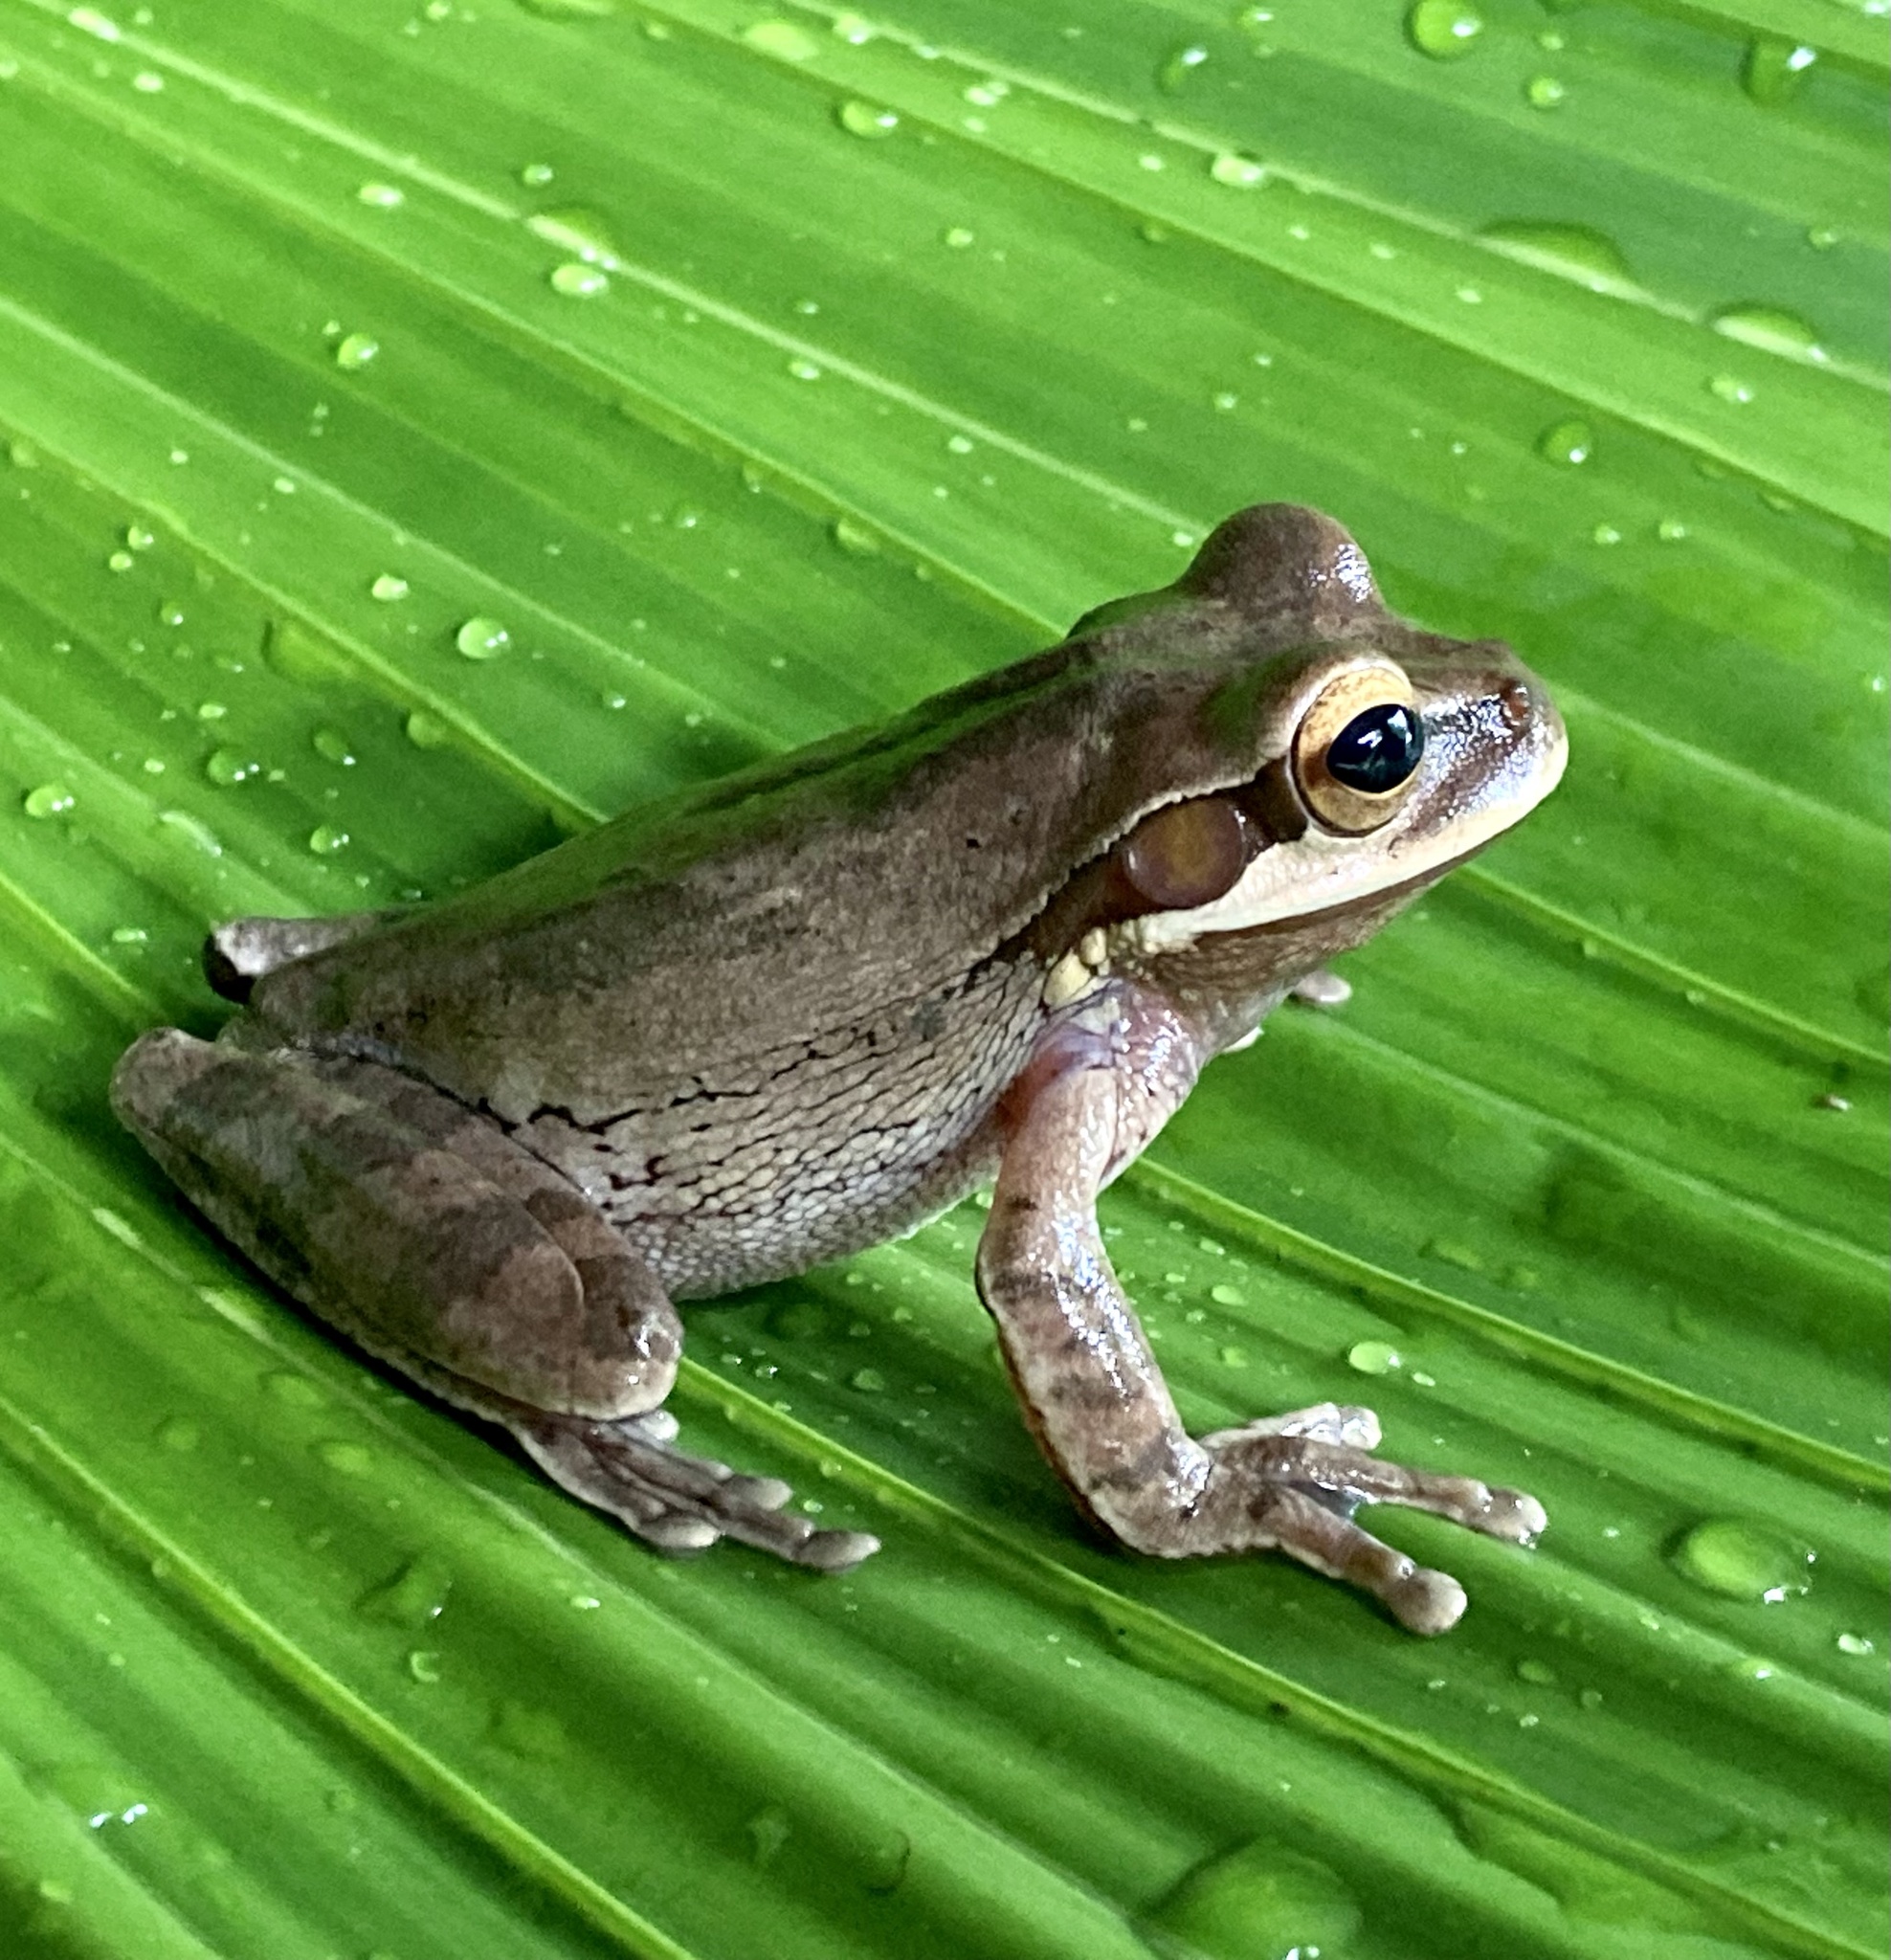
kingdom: Animalia
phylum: Chordata
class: Amphibia
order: Anura
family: Hylidae
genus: Smilisca
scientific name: Smilisca phaeota
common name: Central american smilisca
